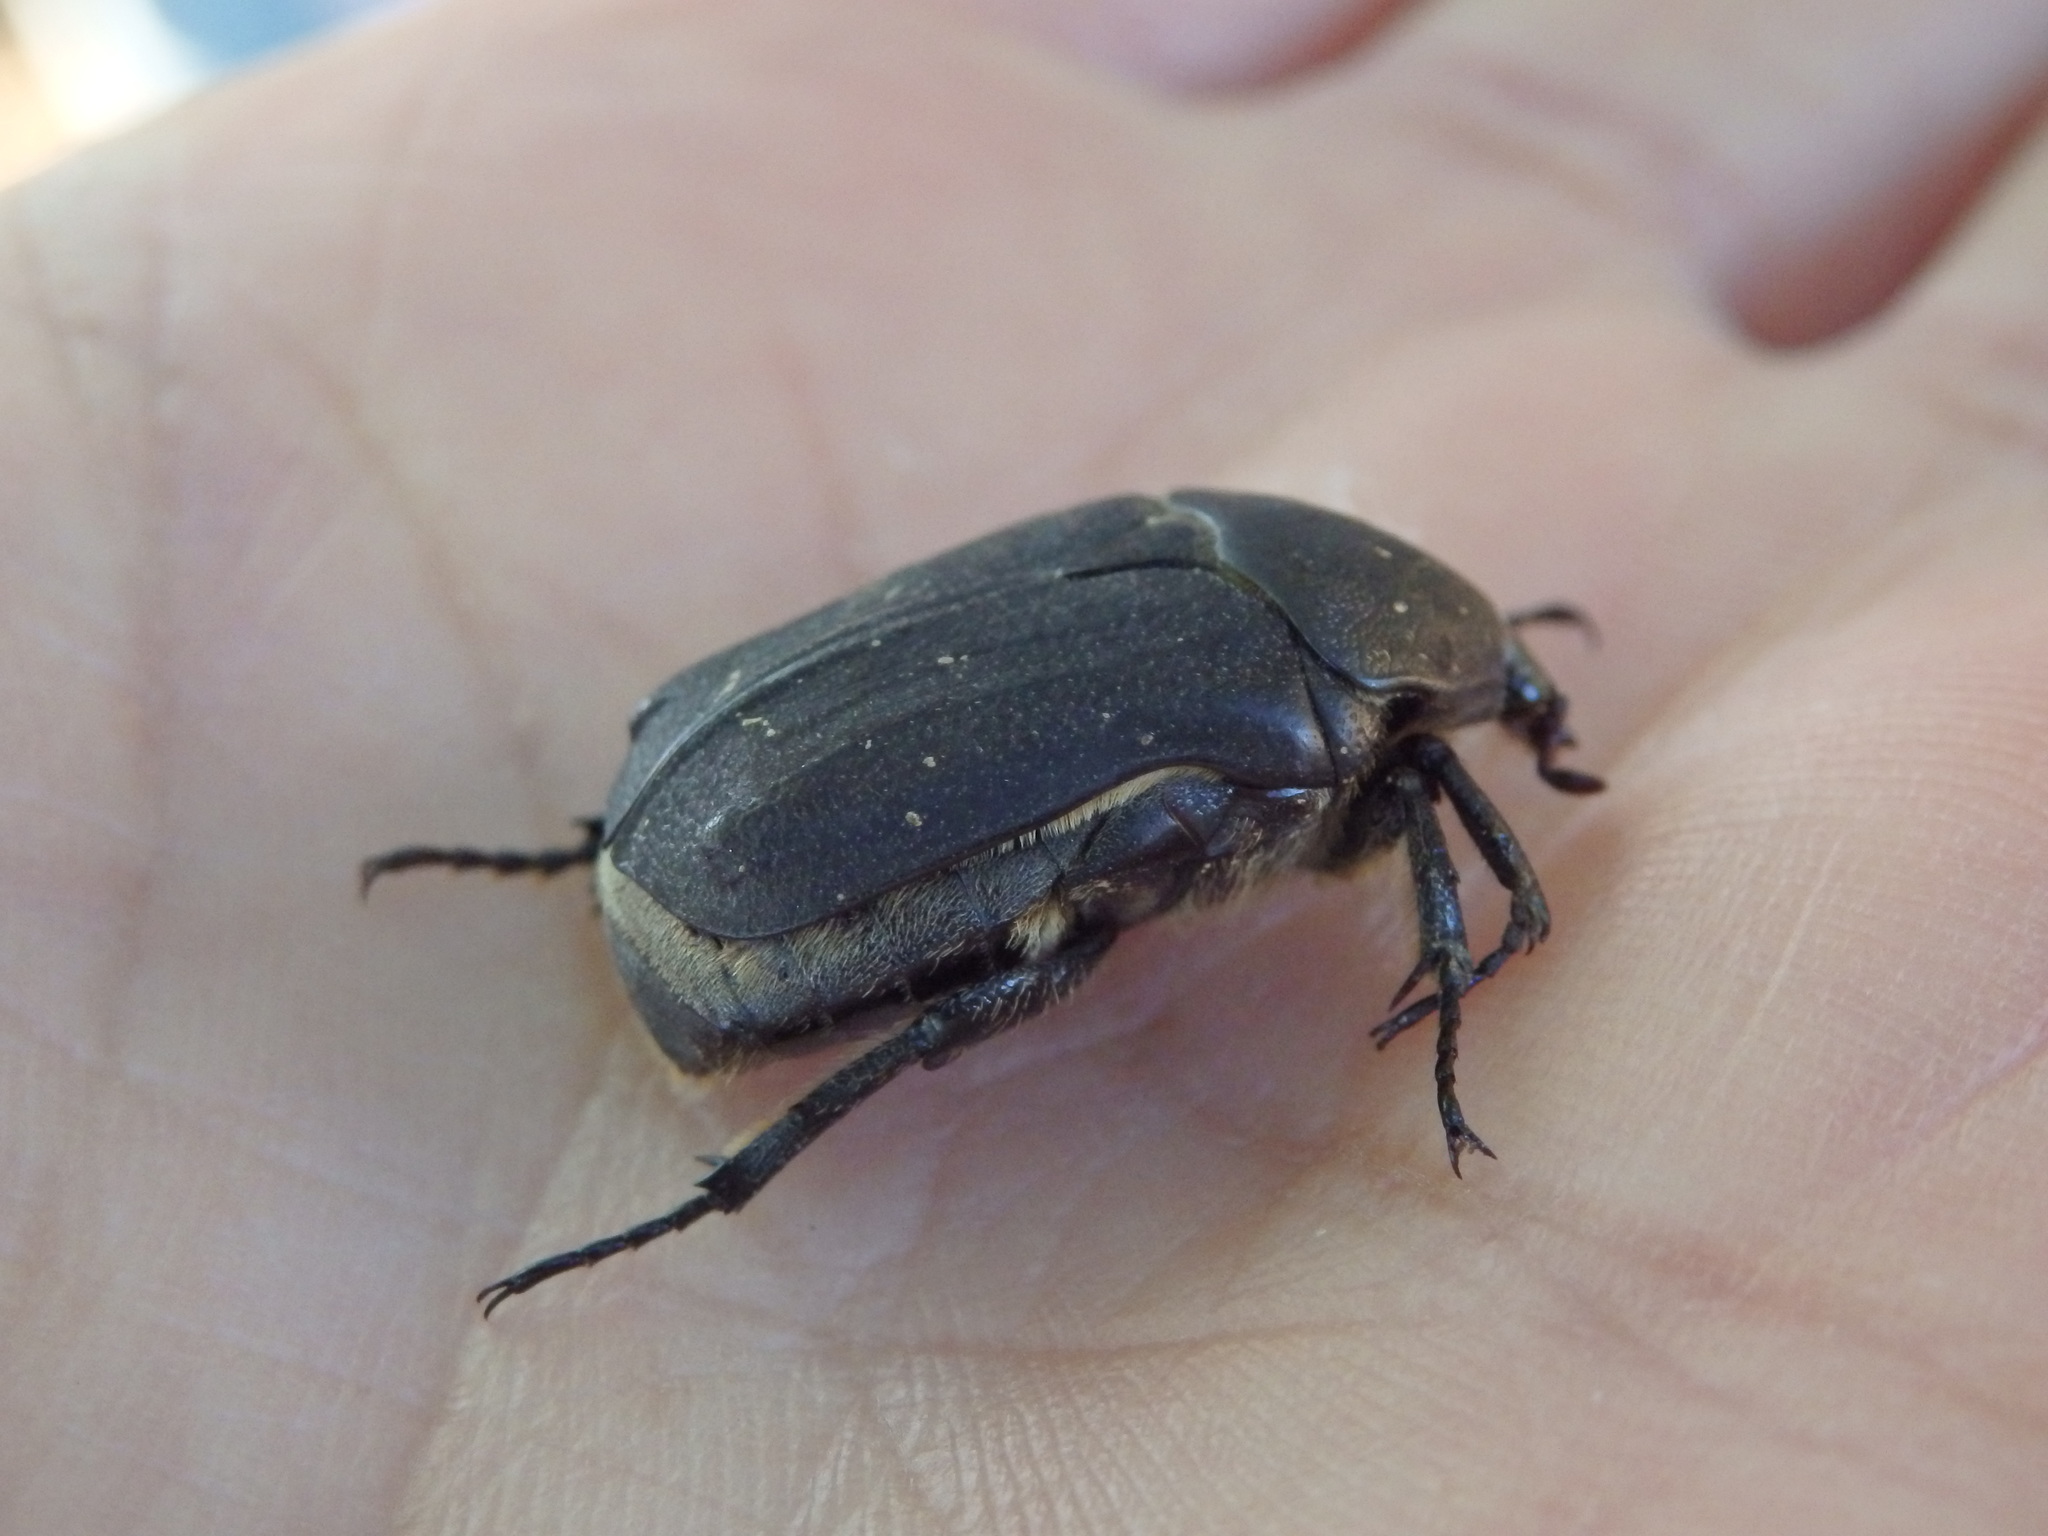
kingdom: Animalia
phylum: Arthropoda
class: Insecta
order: Coleoptera
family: Scarabaeidae
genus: Protaetia
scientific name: Protaetia morio
